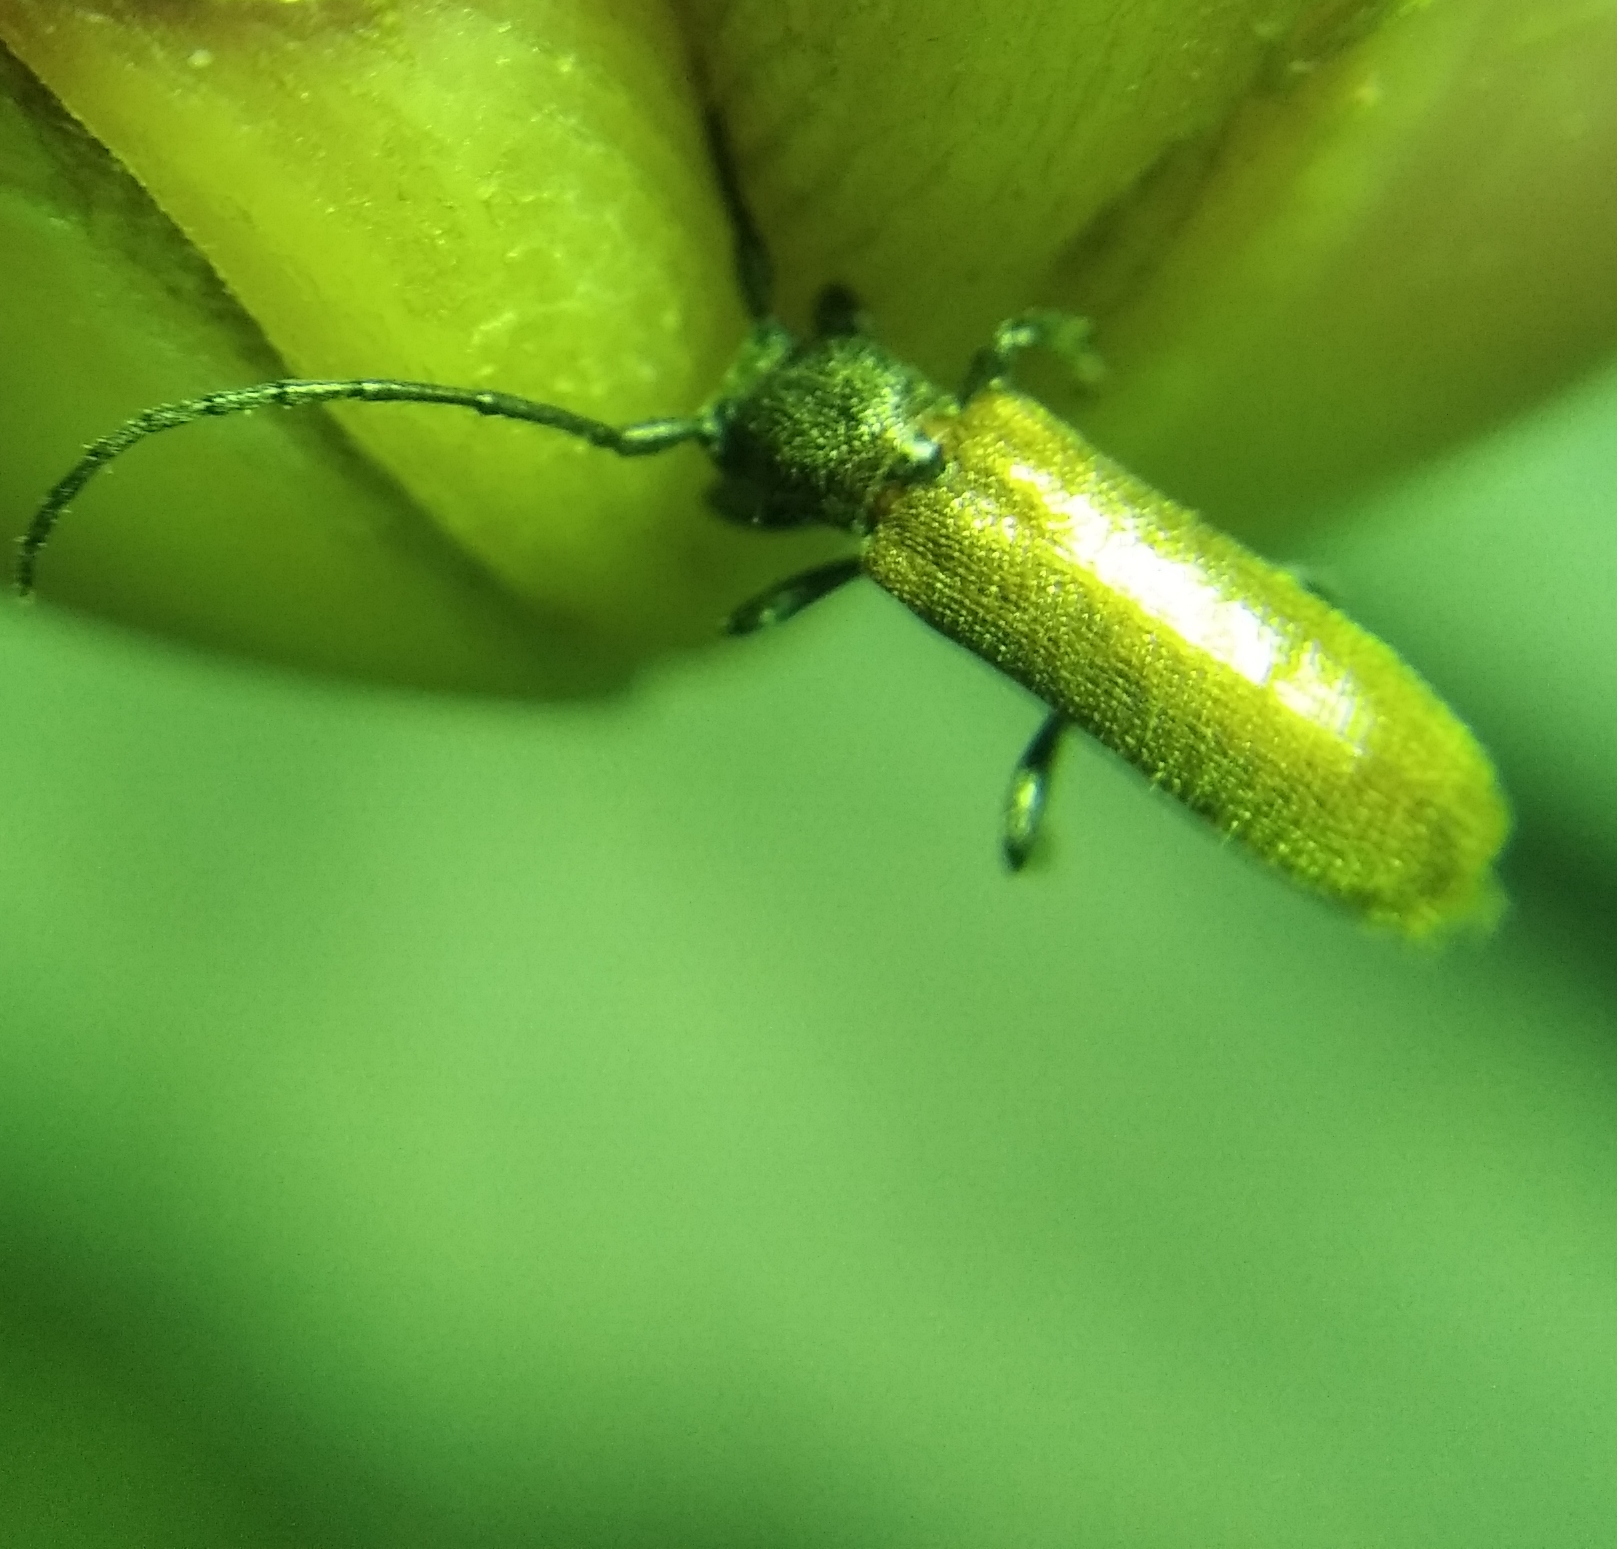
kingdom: Animalia
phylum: Arthropoda
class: Insecta
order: Coleoptera
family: Cerambycidae
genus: Anaesthetis
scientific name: Anaesthetis testacea
